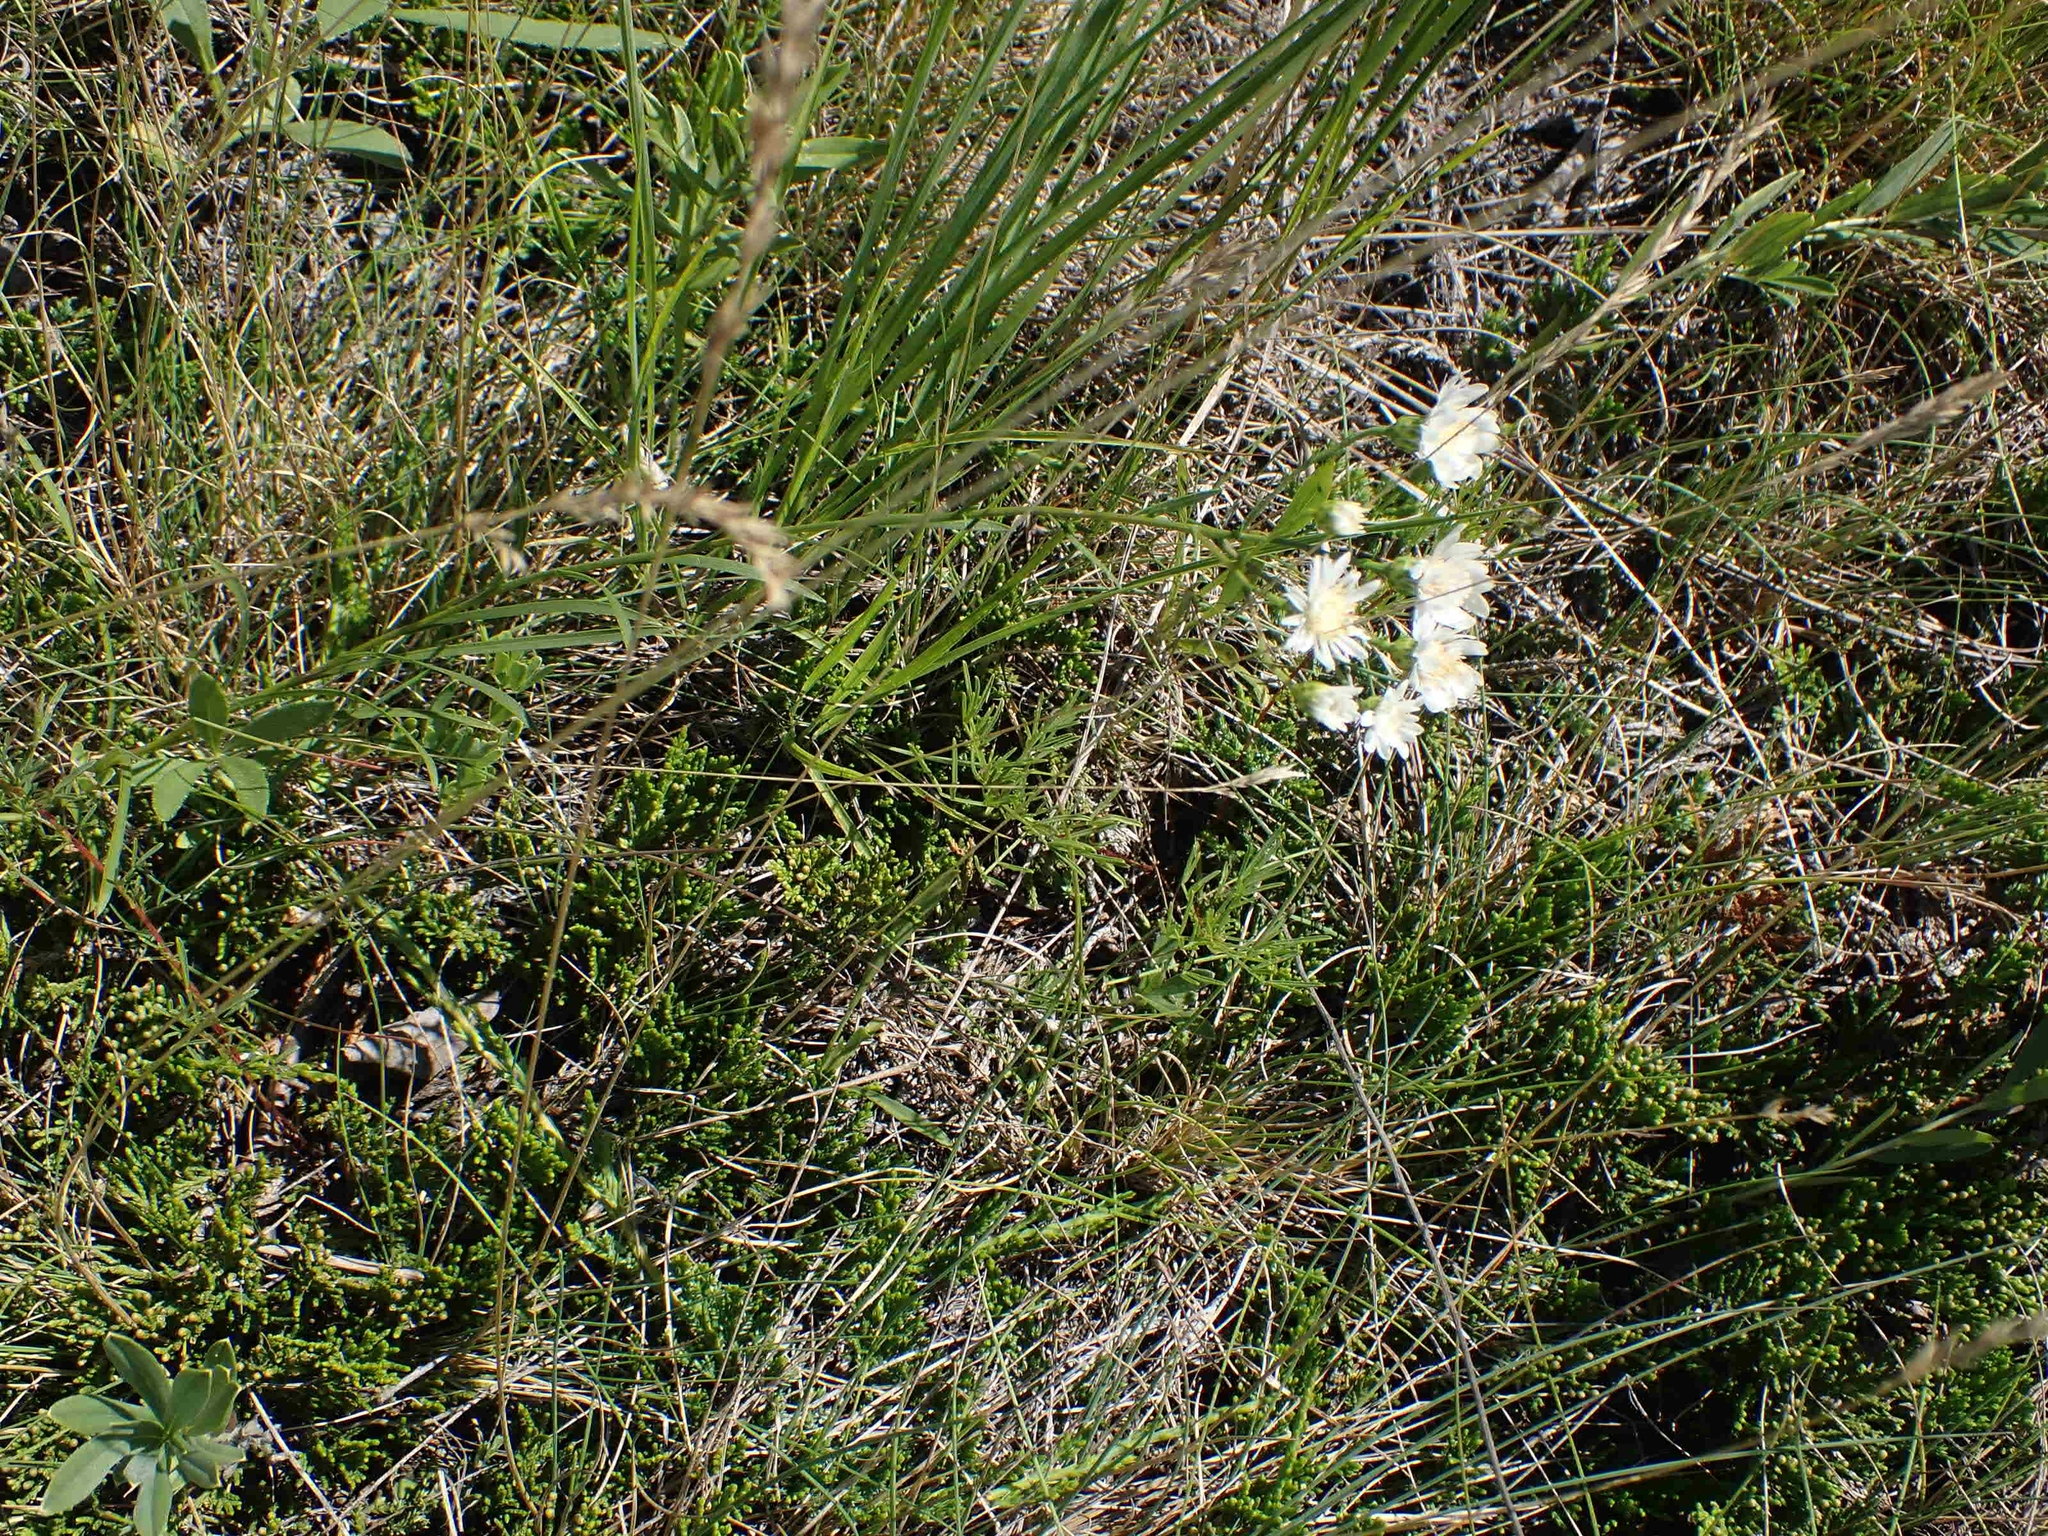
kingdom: Plantae
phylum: Tracheophyta
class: Magnoliopsida
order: Asterales
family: Asteraceae
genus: Solidago
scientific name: Solidago ptarmicoides
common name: White flat-top goldenrod
